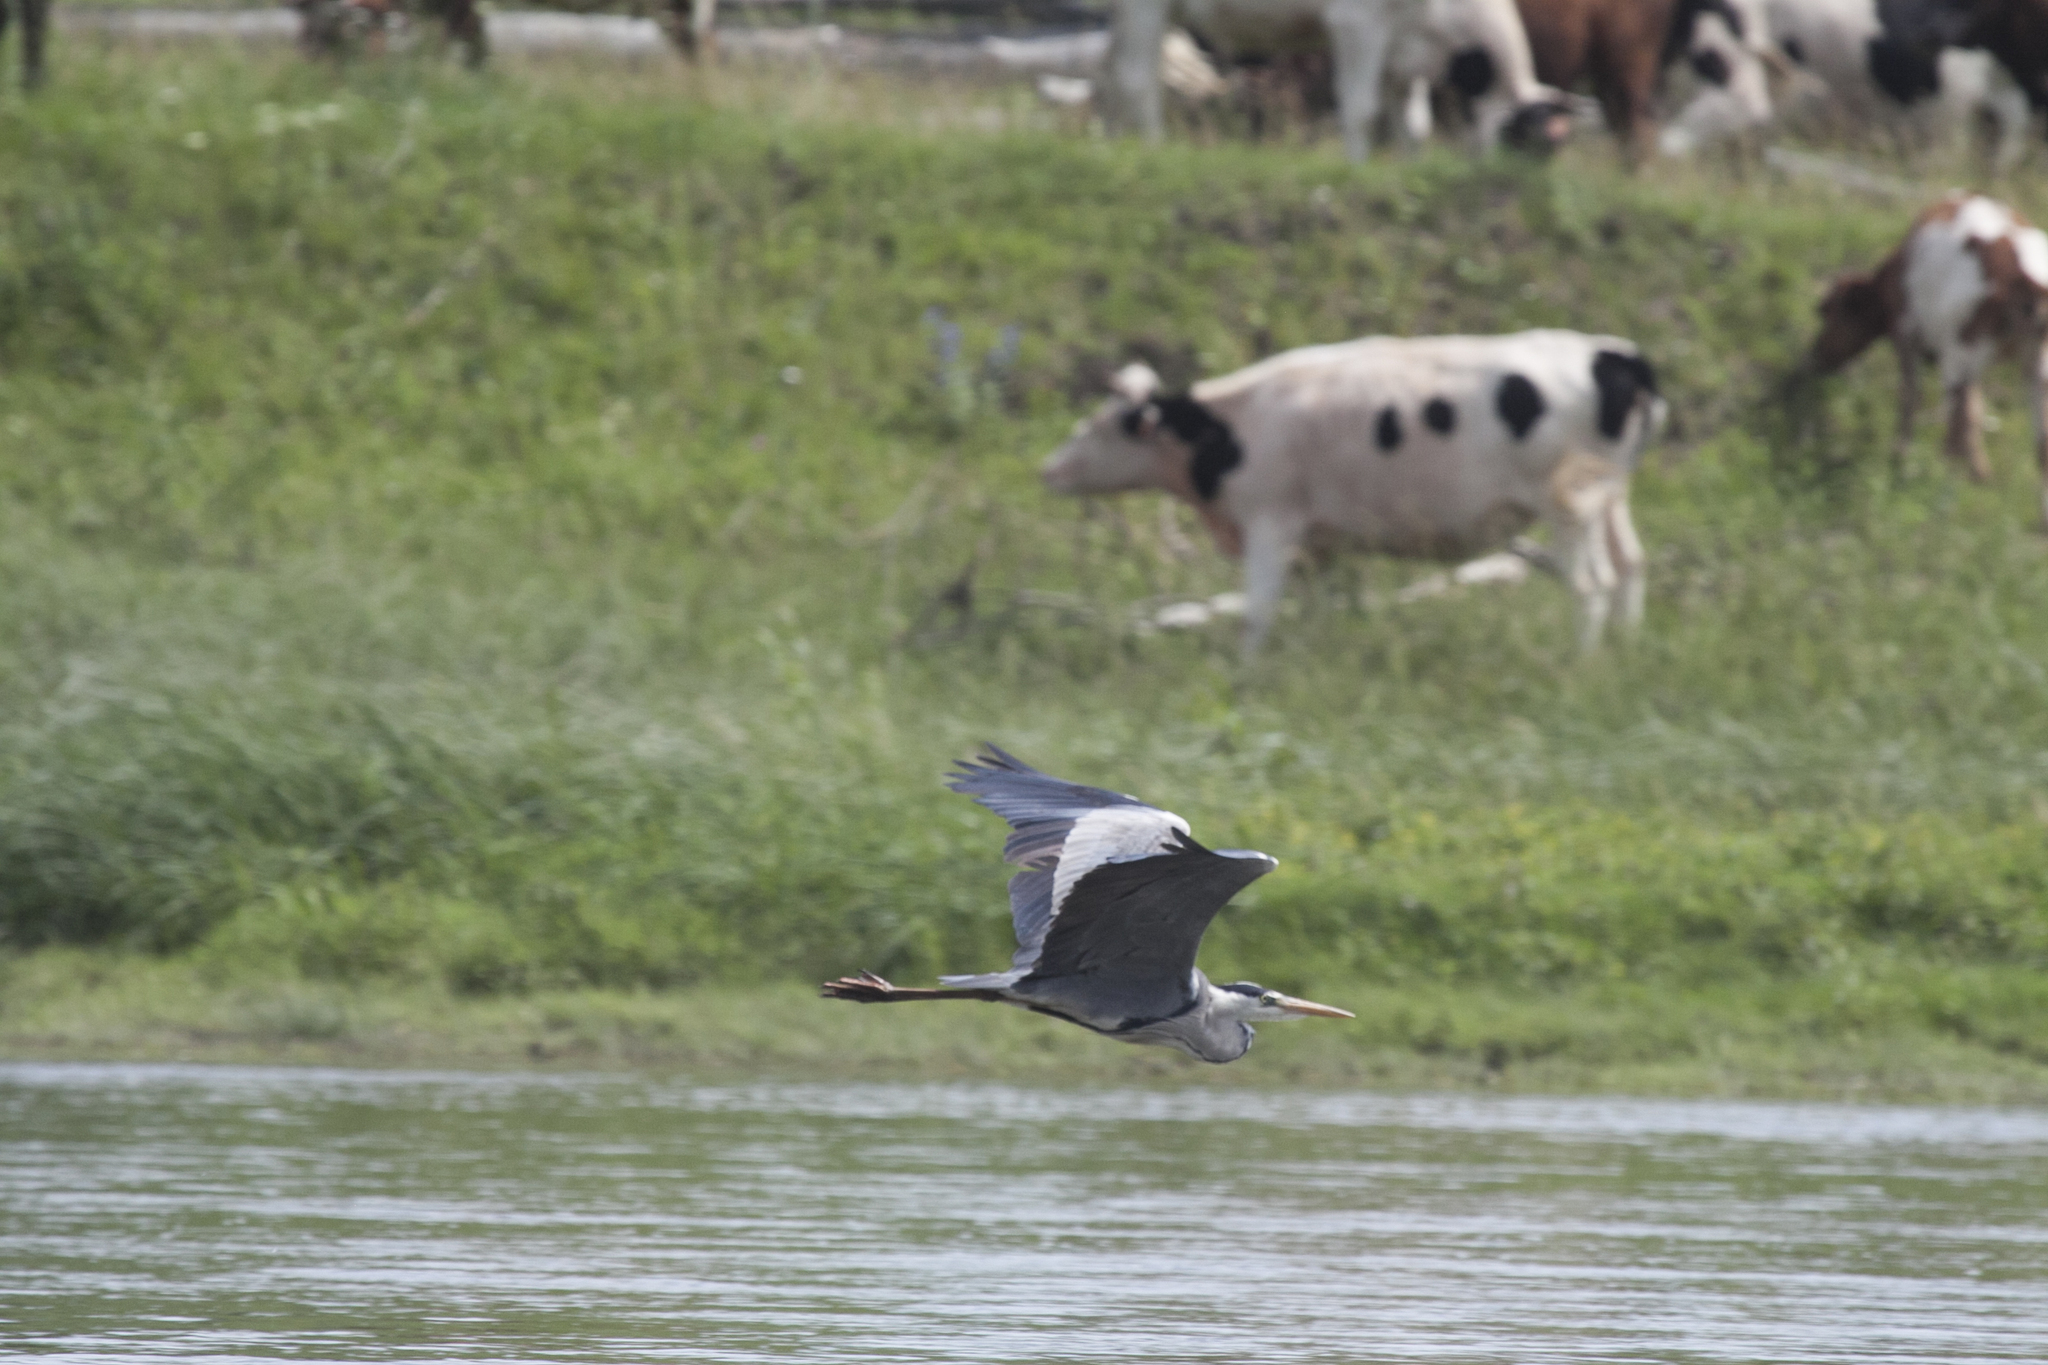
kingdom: Animalia
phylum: Chordata
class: Aves
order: Pelecaniformes
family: Ardeidae
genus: Ardea
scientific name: Ardea cinerea
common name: Grey heron
